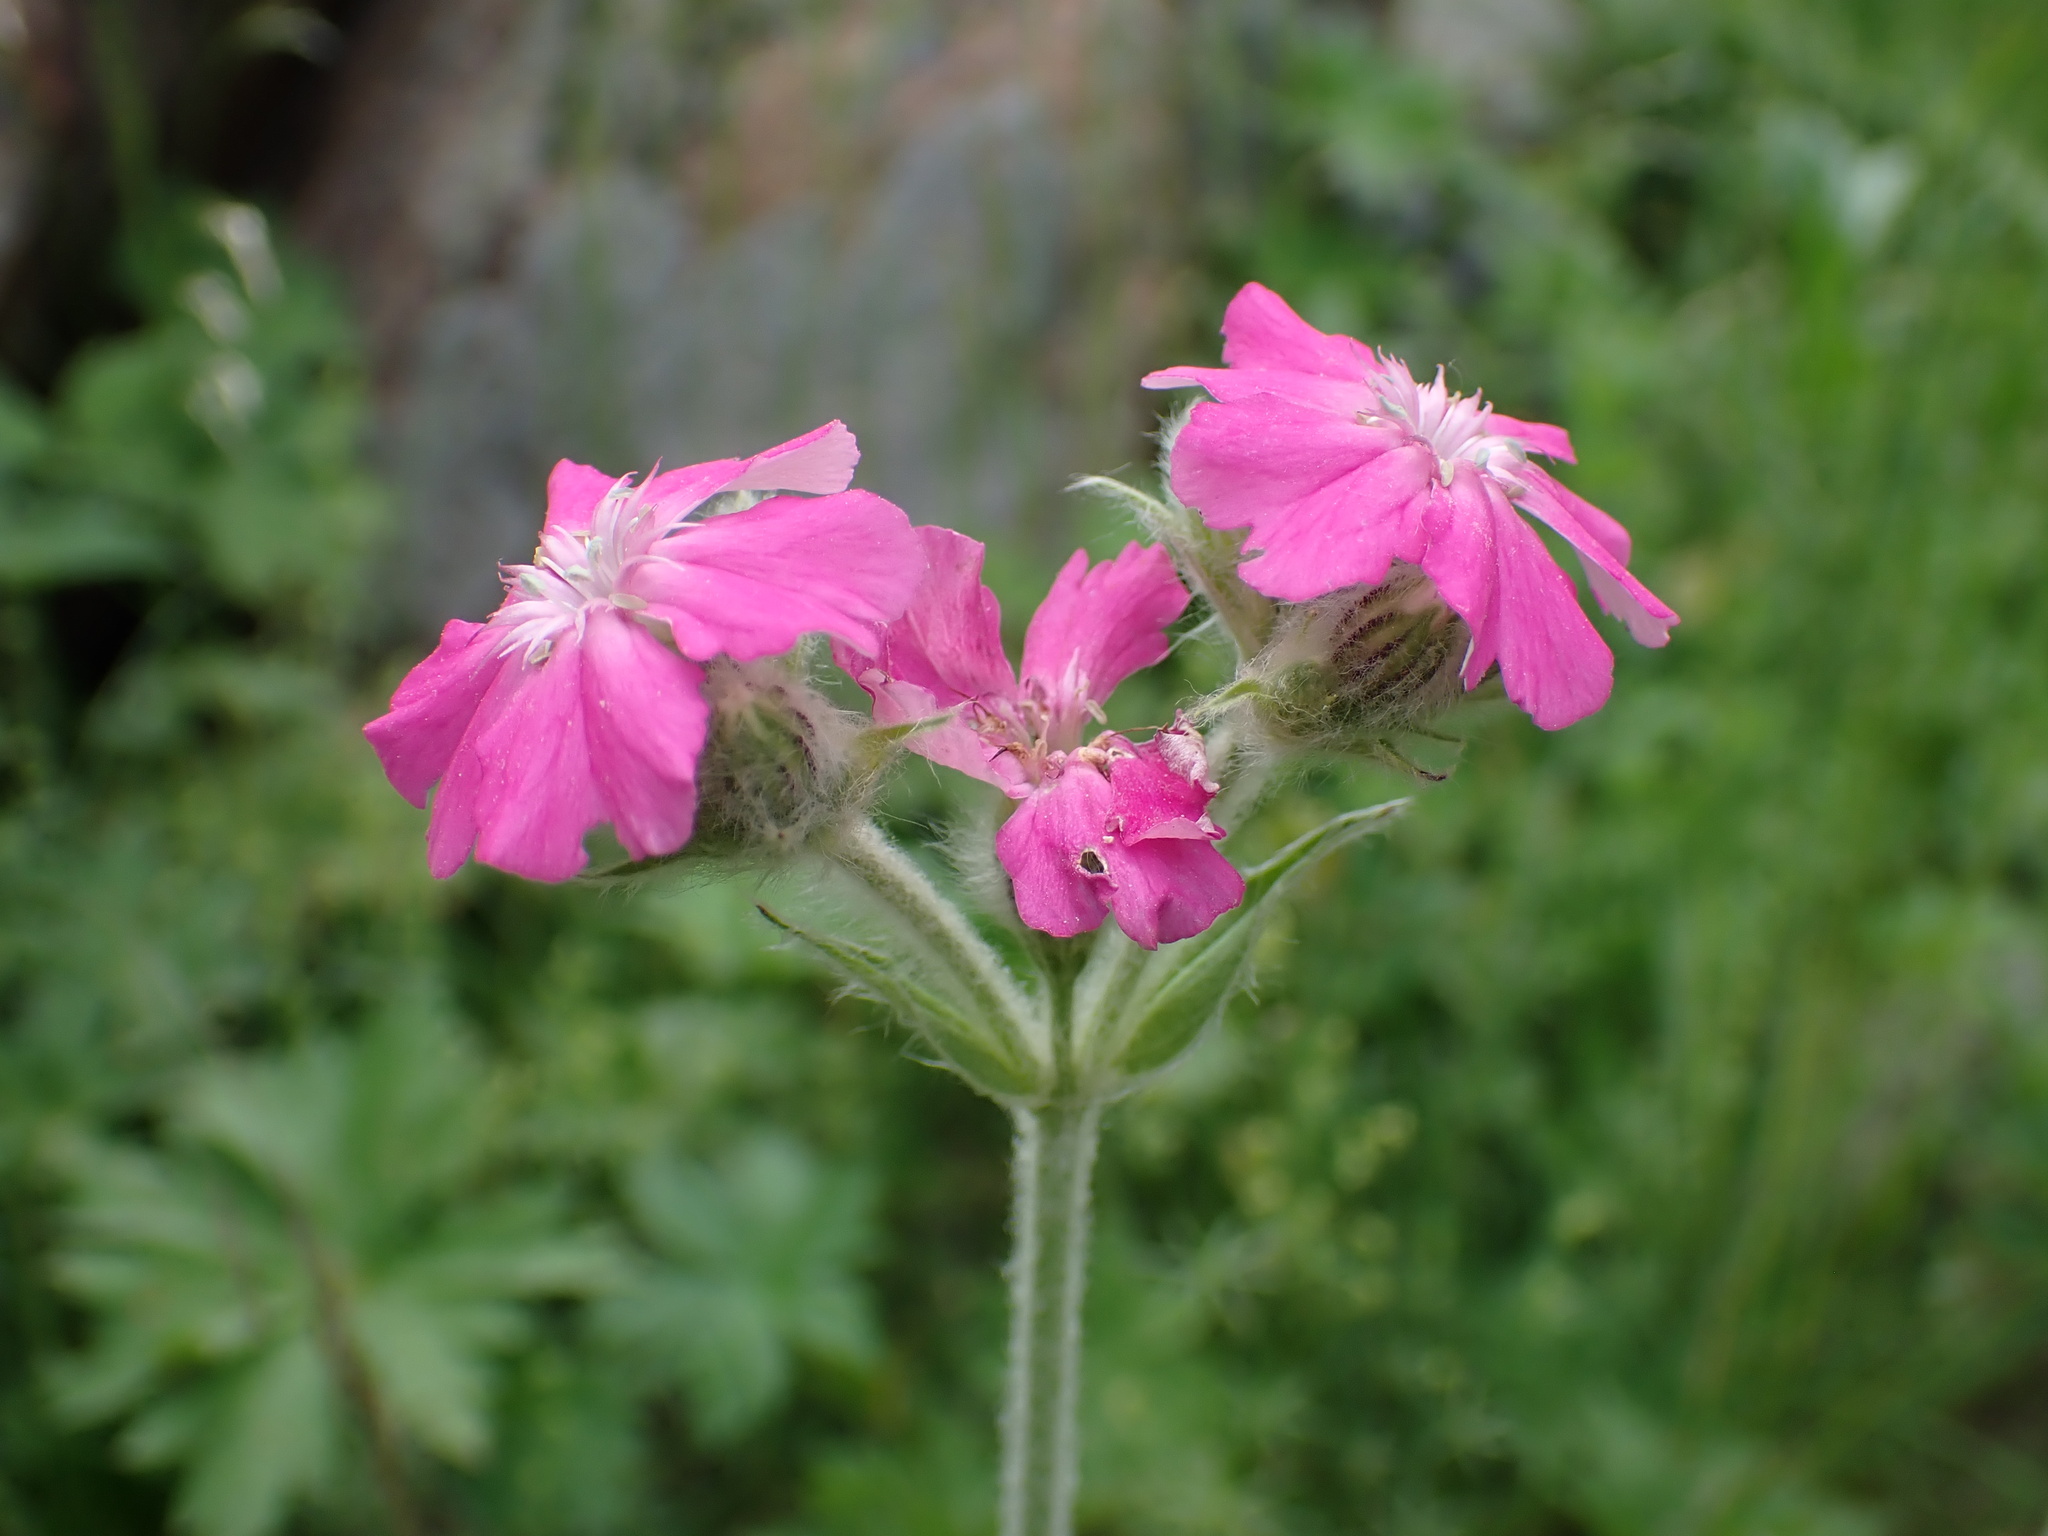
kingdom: Plantae
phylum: Tracheophyta
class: Magnoliopsida
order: Caryophyllales
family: Caryophyllaceae
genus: Silene
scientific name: Silene flos-jovis
